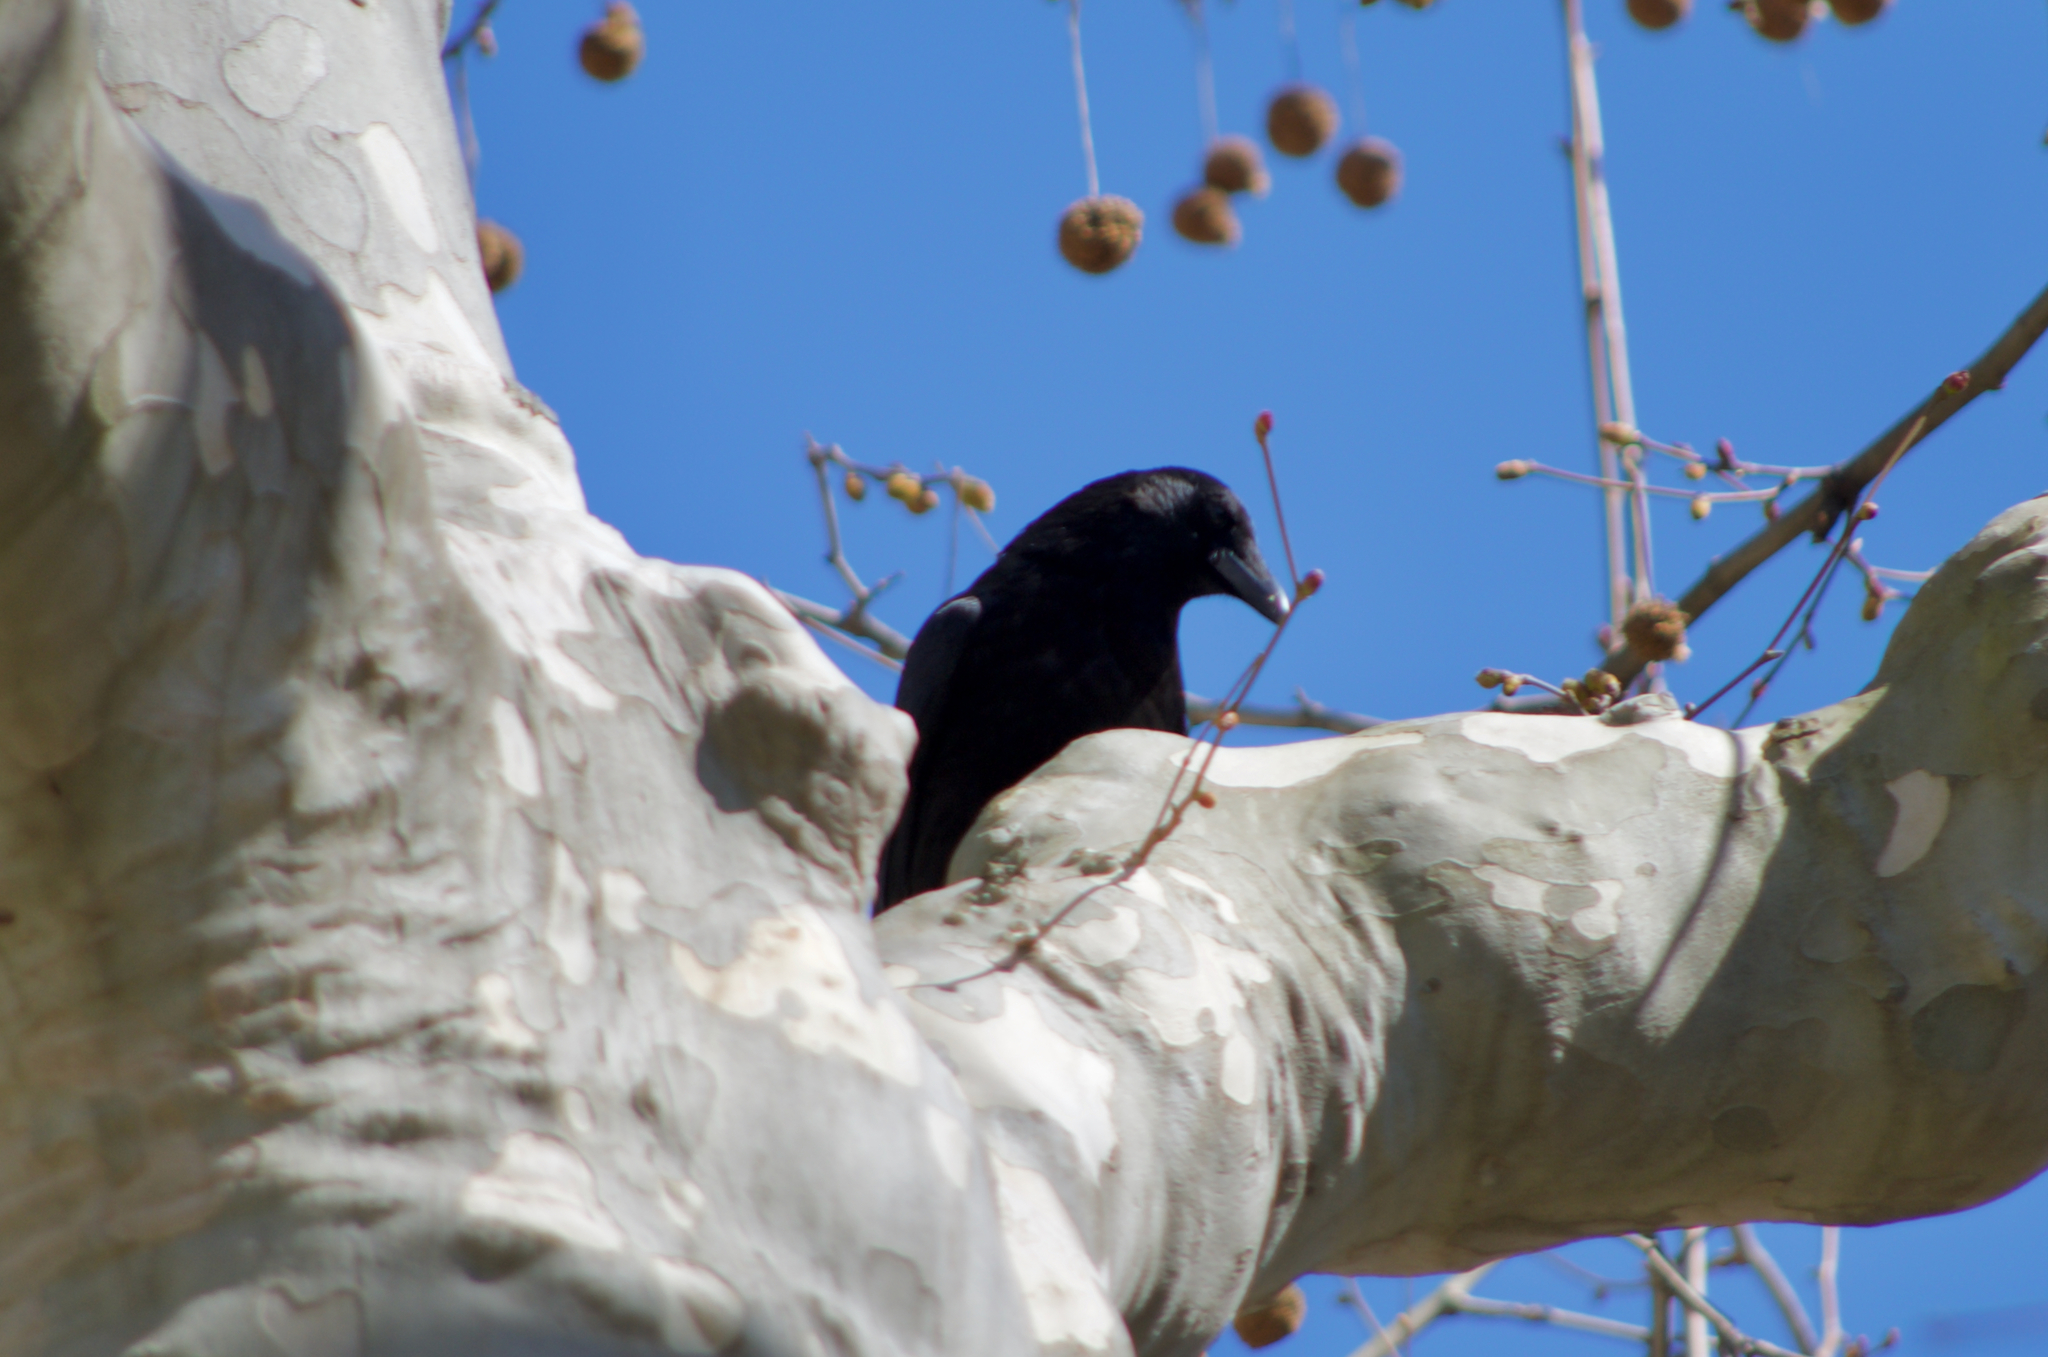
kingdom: Animalia
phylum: Chordata
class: Aves
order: Passeriformes
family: Corvidae
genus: Corvus
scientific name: Corvus corone
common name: Carrion crow
